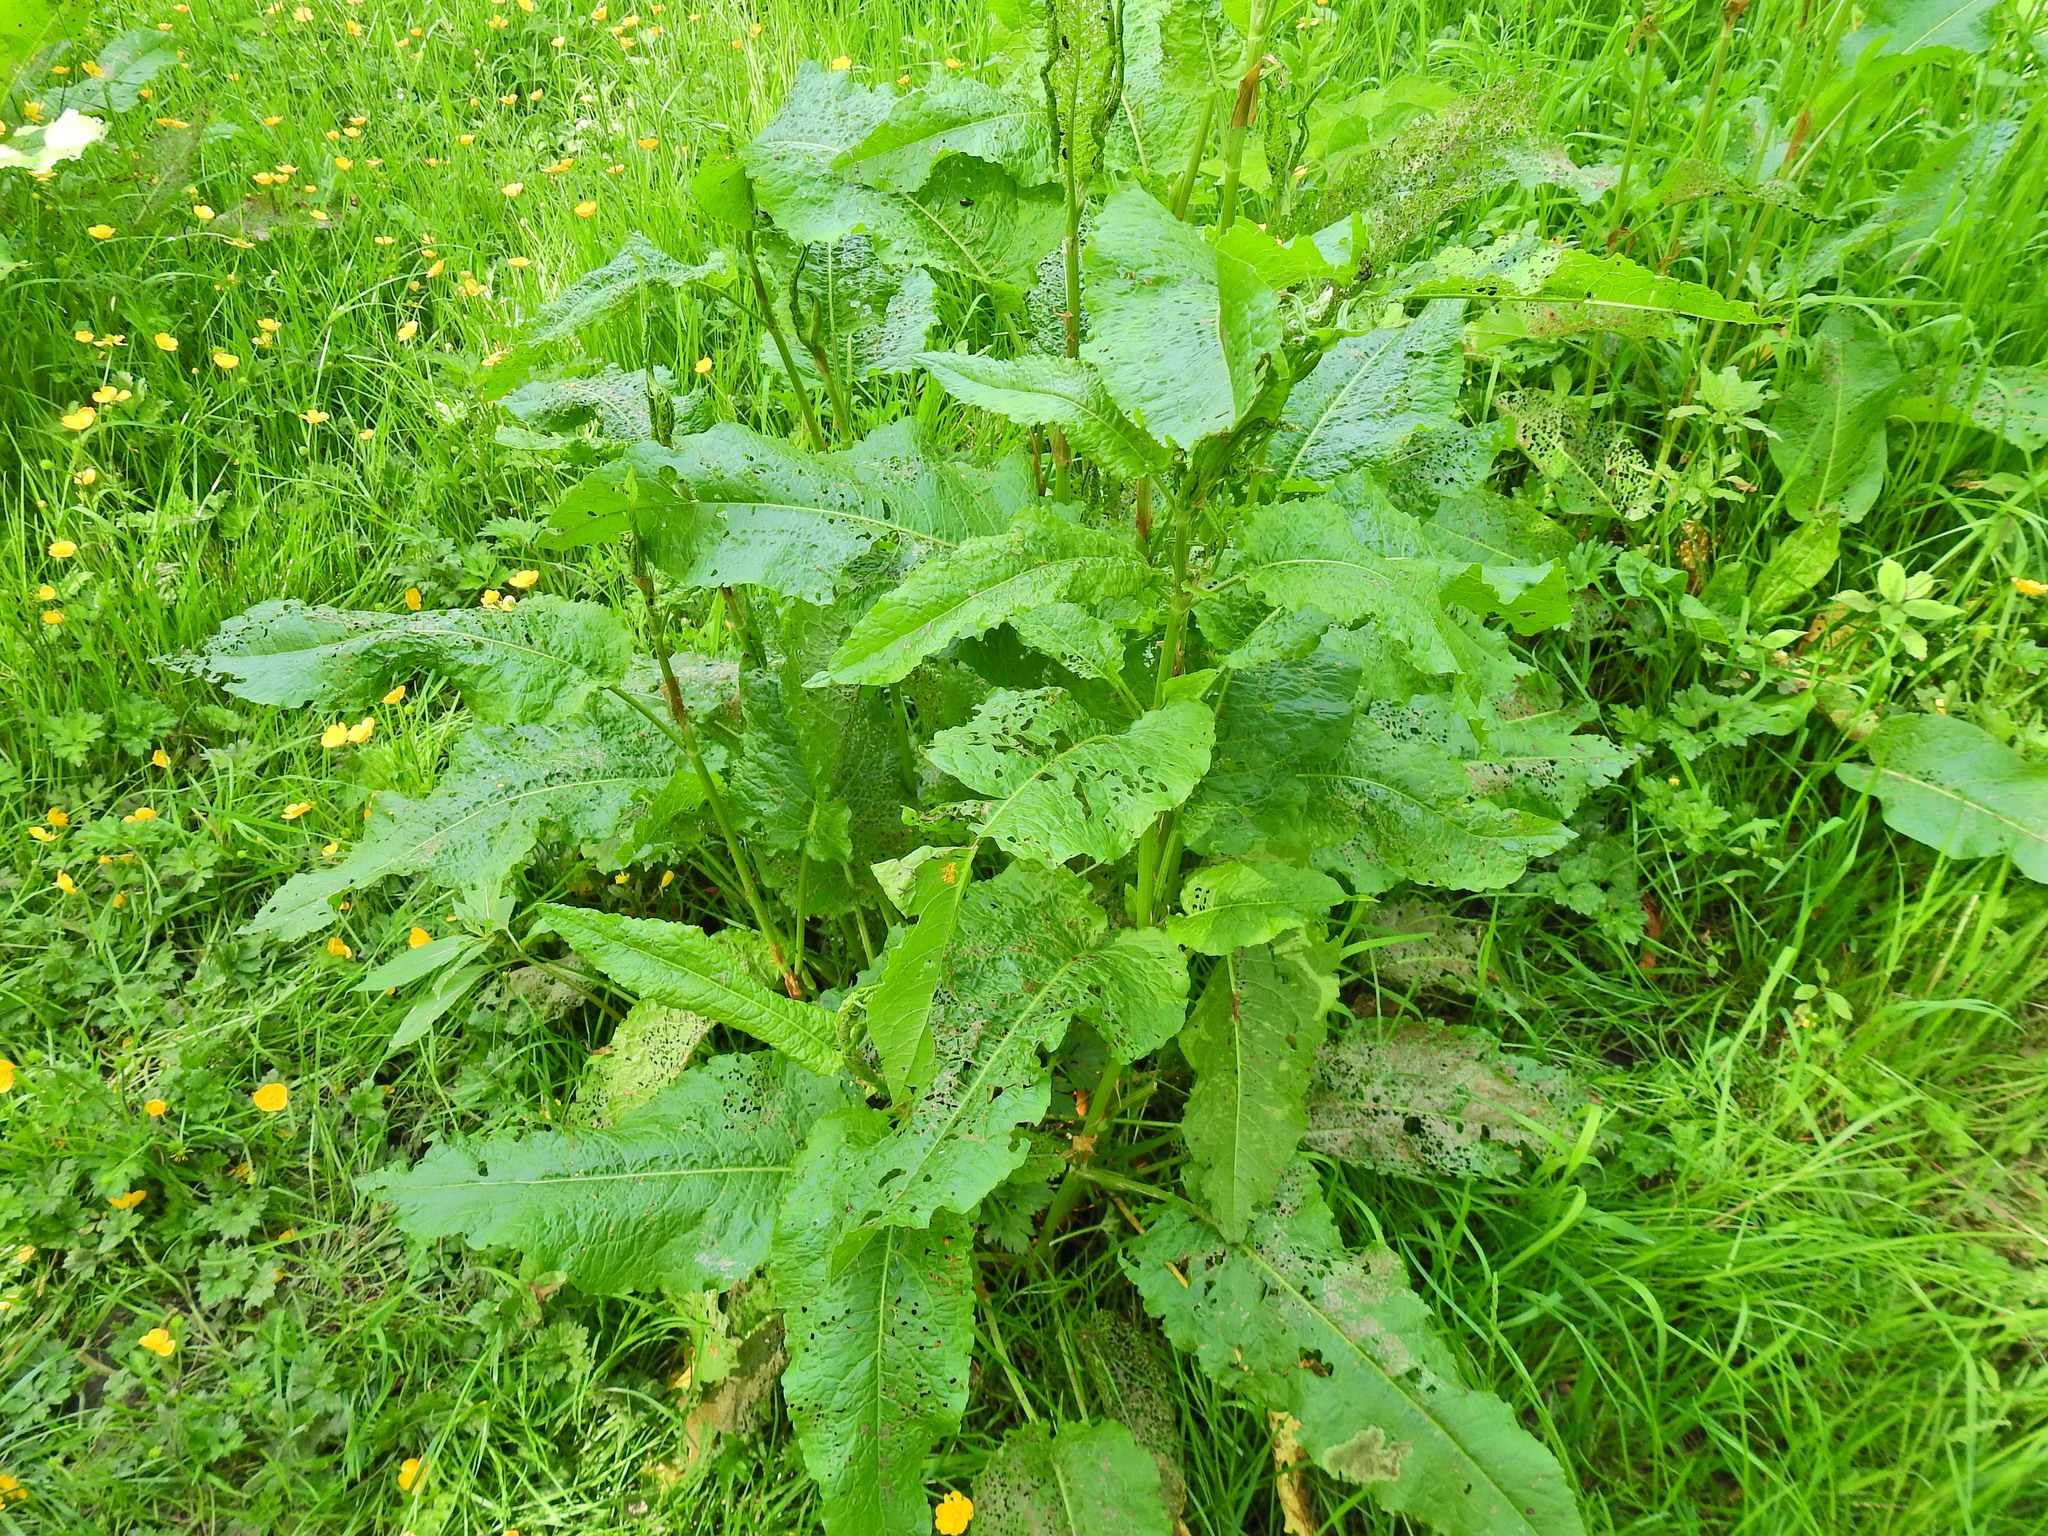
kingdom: Plantae
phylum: Tracheophyta
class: Magnoliopsida
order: Caryophyllales
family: Polygonaceae
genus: Rumex
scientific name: Rumex obtusifolius
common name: Bitter dock
